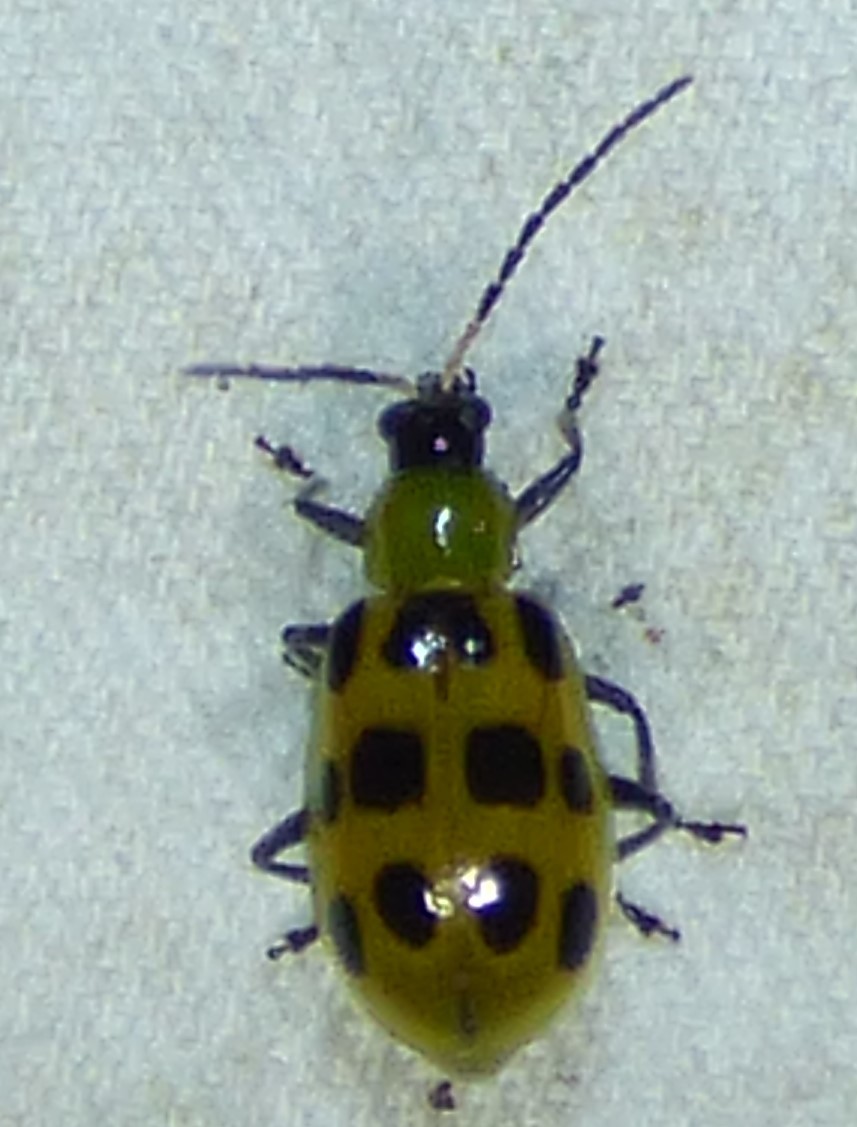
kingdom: Animalia
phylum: Arthropoda
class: Insecta
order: Coleoptera
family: Chrysomelidae
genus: Diabrotica
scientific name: Diabrotica undecimpunctata
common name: Spotted cucumber beetle
